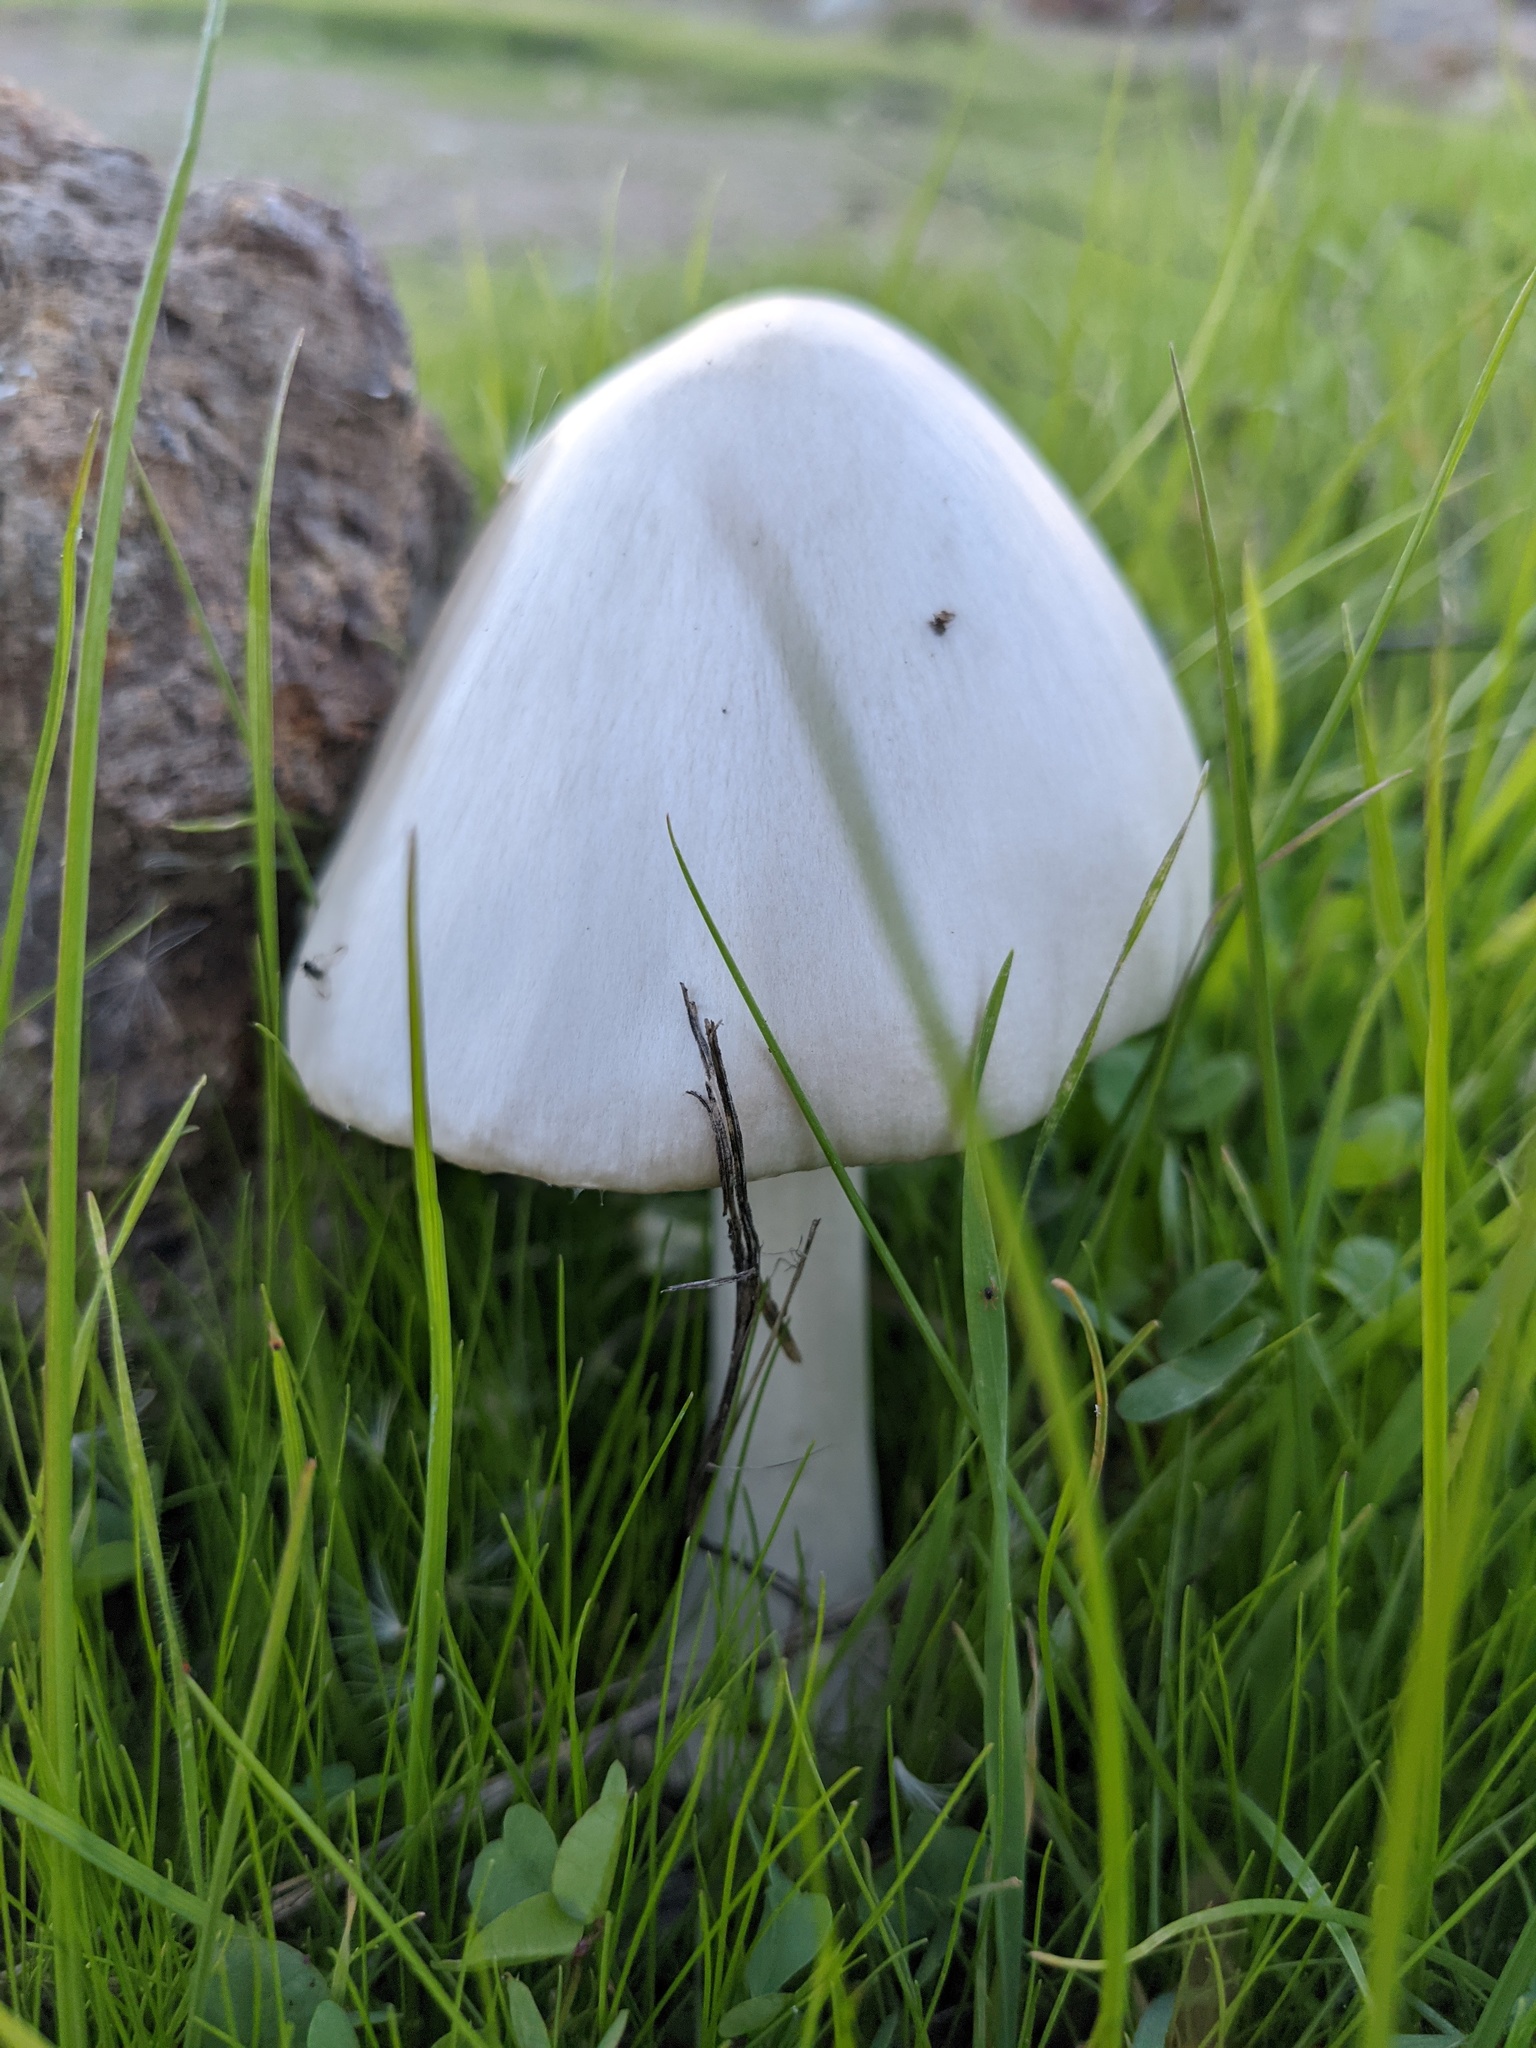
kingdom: Fungi
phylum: Basidiomycota
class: Agaricomycetes
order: Agaricales
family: Pluteaceae
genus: Volvopluteus
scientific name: Volvopluteus gloiocephalus
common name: Stubble rosegill
